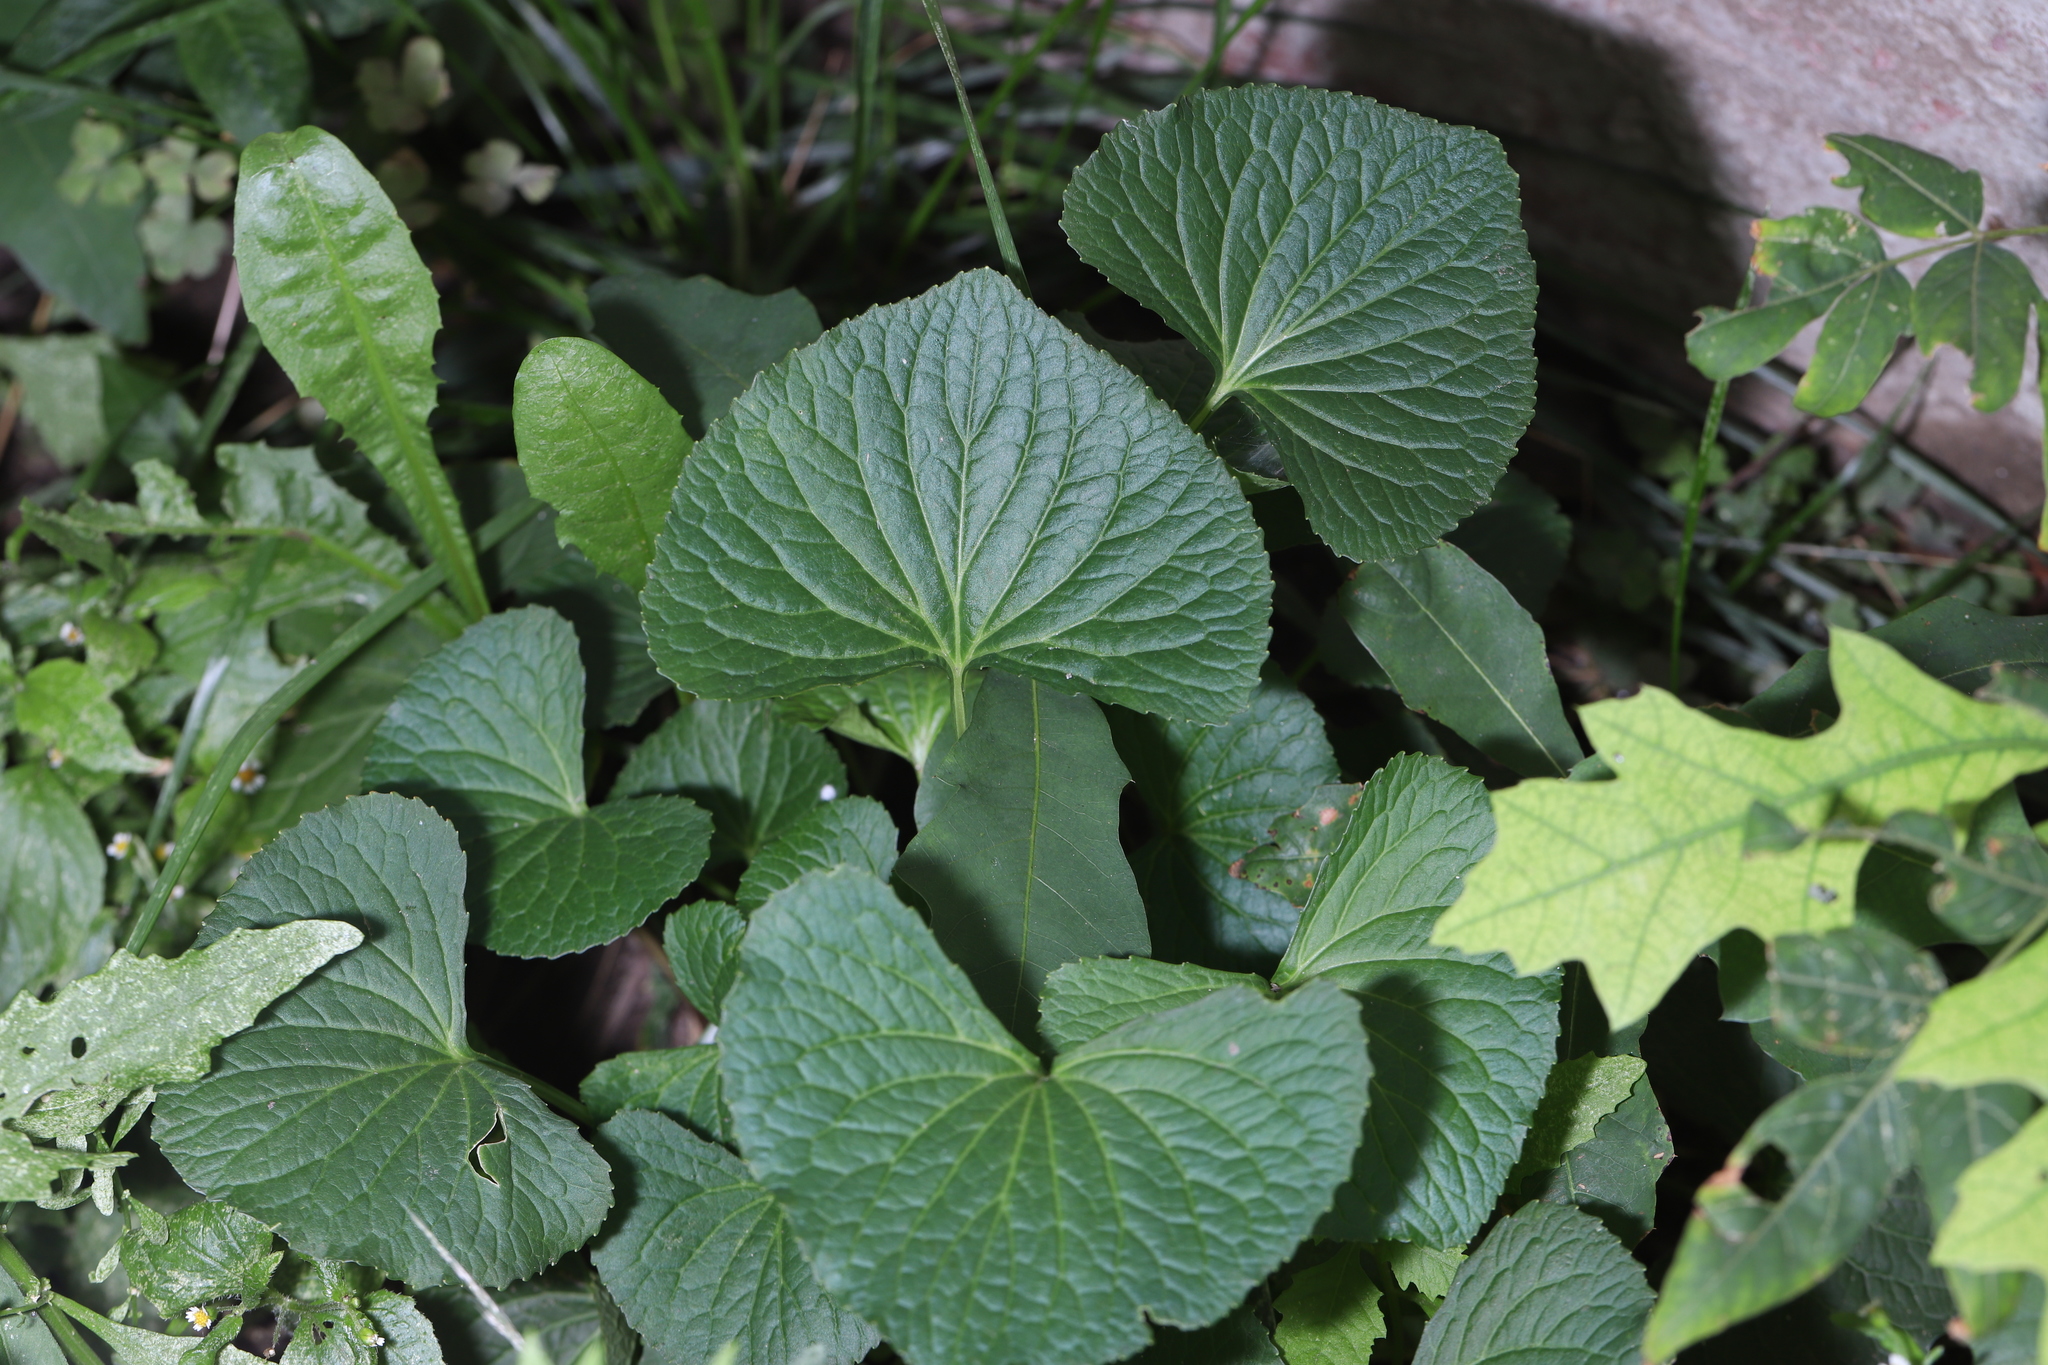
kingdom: Plantae
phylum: Tracheophyta
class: Magnoliopsida
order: Malpighiales
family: Violaceae
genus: Viola
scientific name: Viola sororia
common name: Dooryard violet
